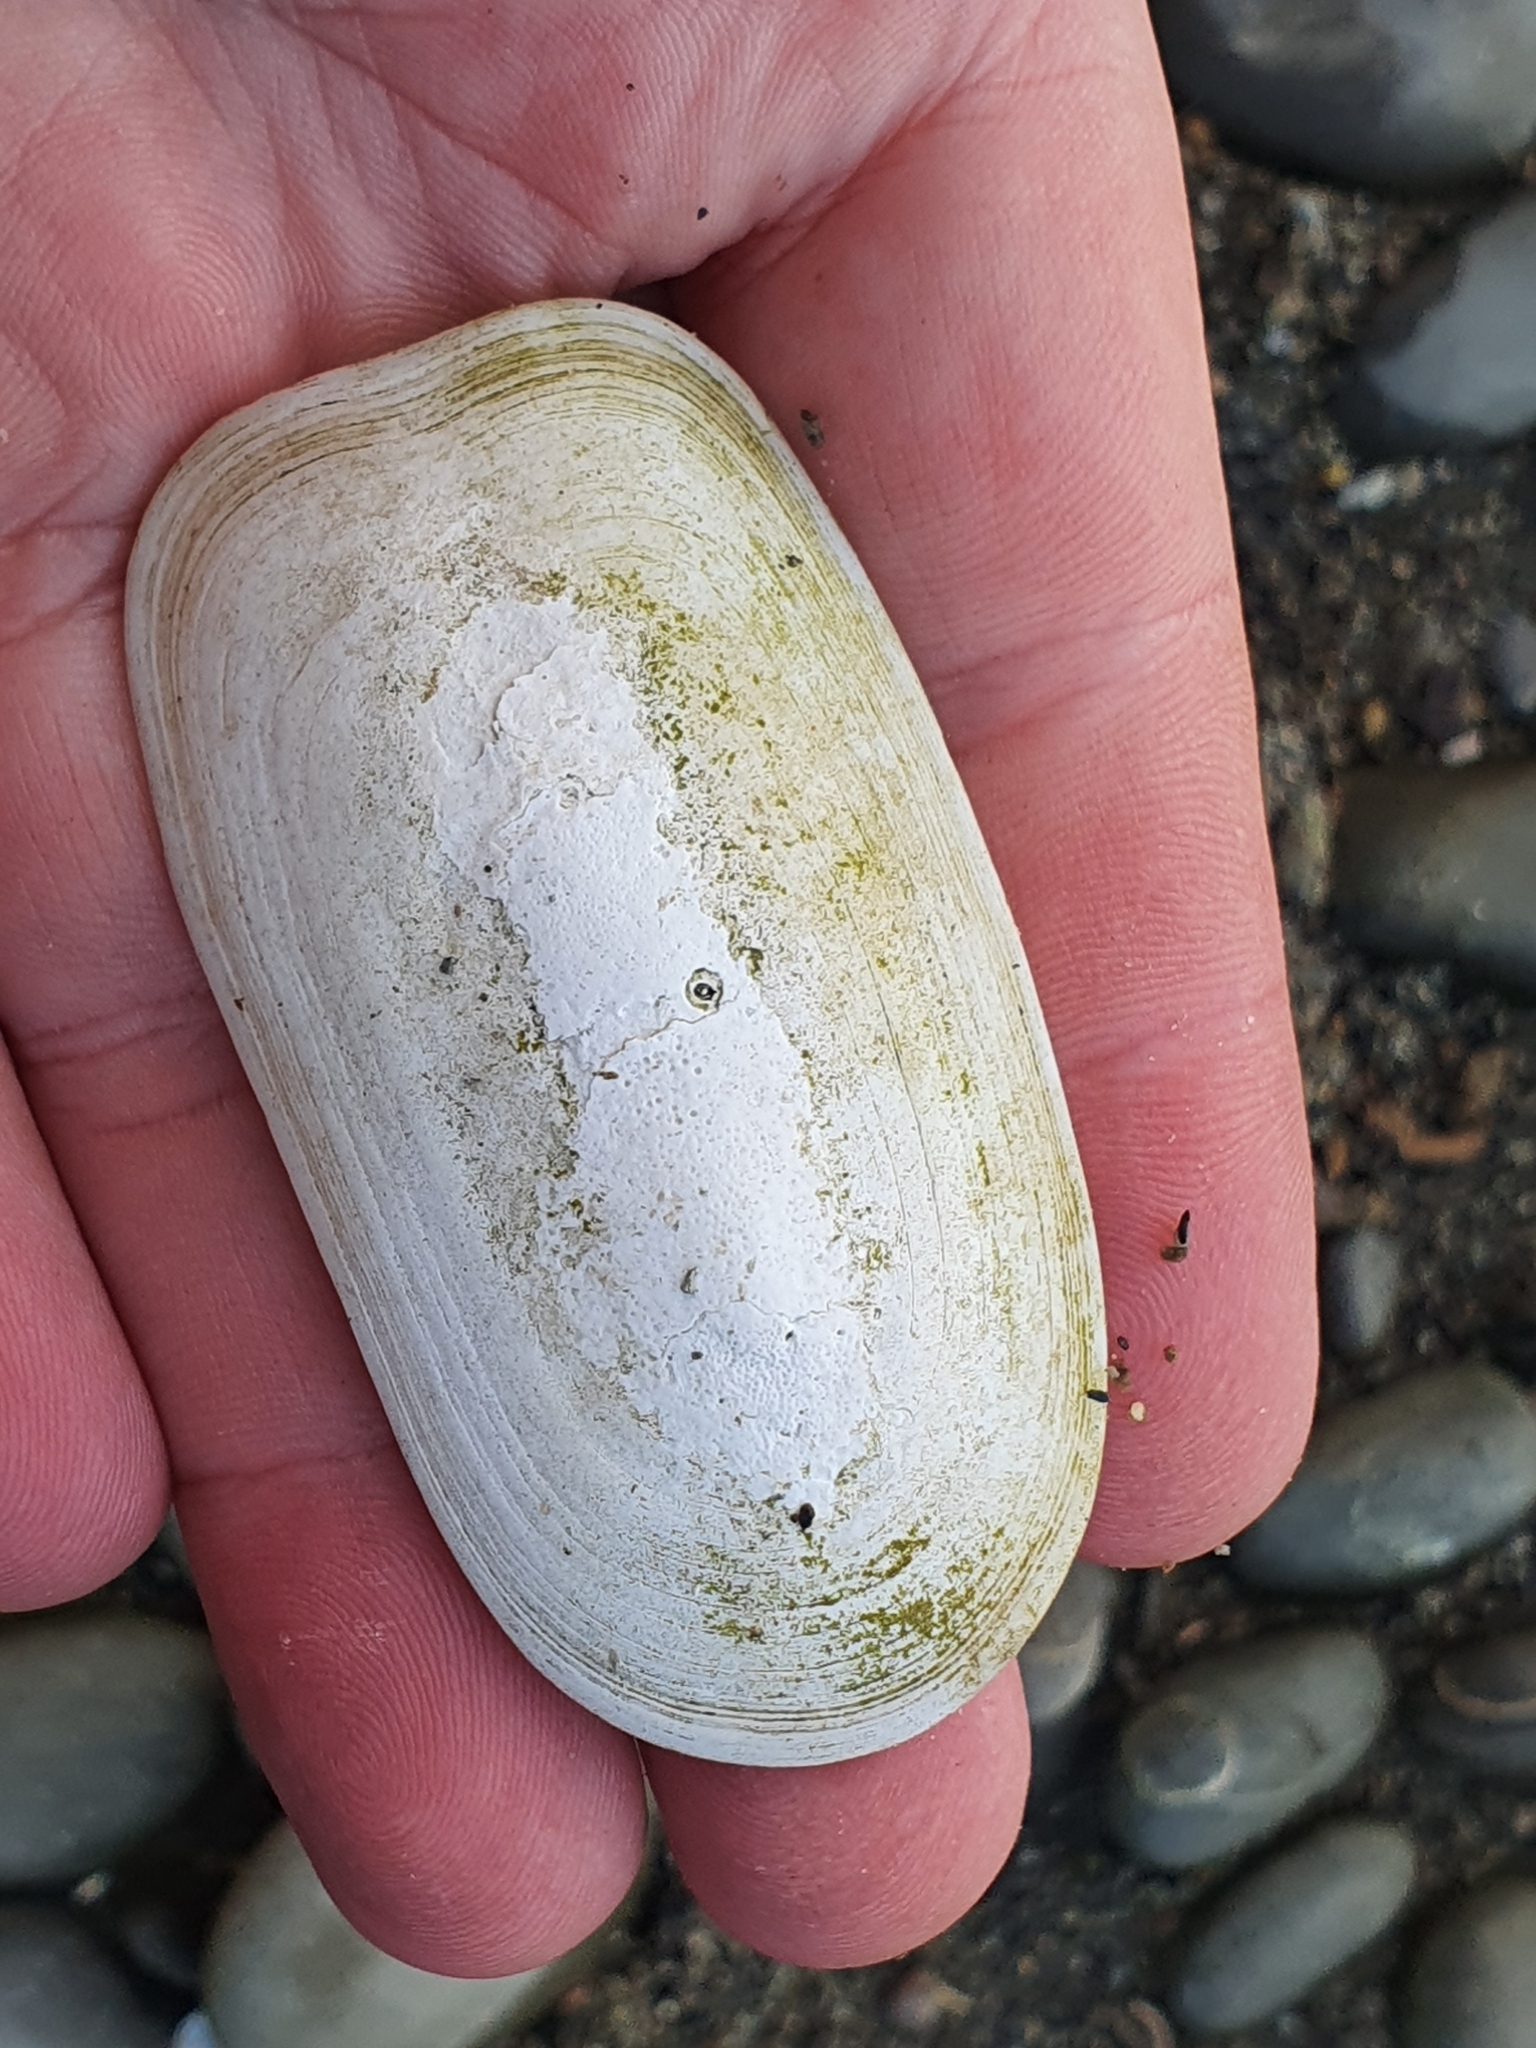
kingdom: Animalia
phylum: Mollusca
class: Gastropoda
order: Lepetellida
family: Fissurellidae
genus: Scutus
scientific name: Scutus breviculus
